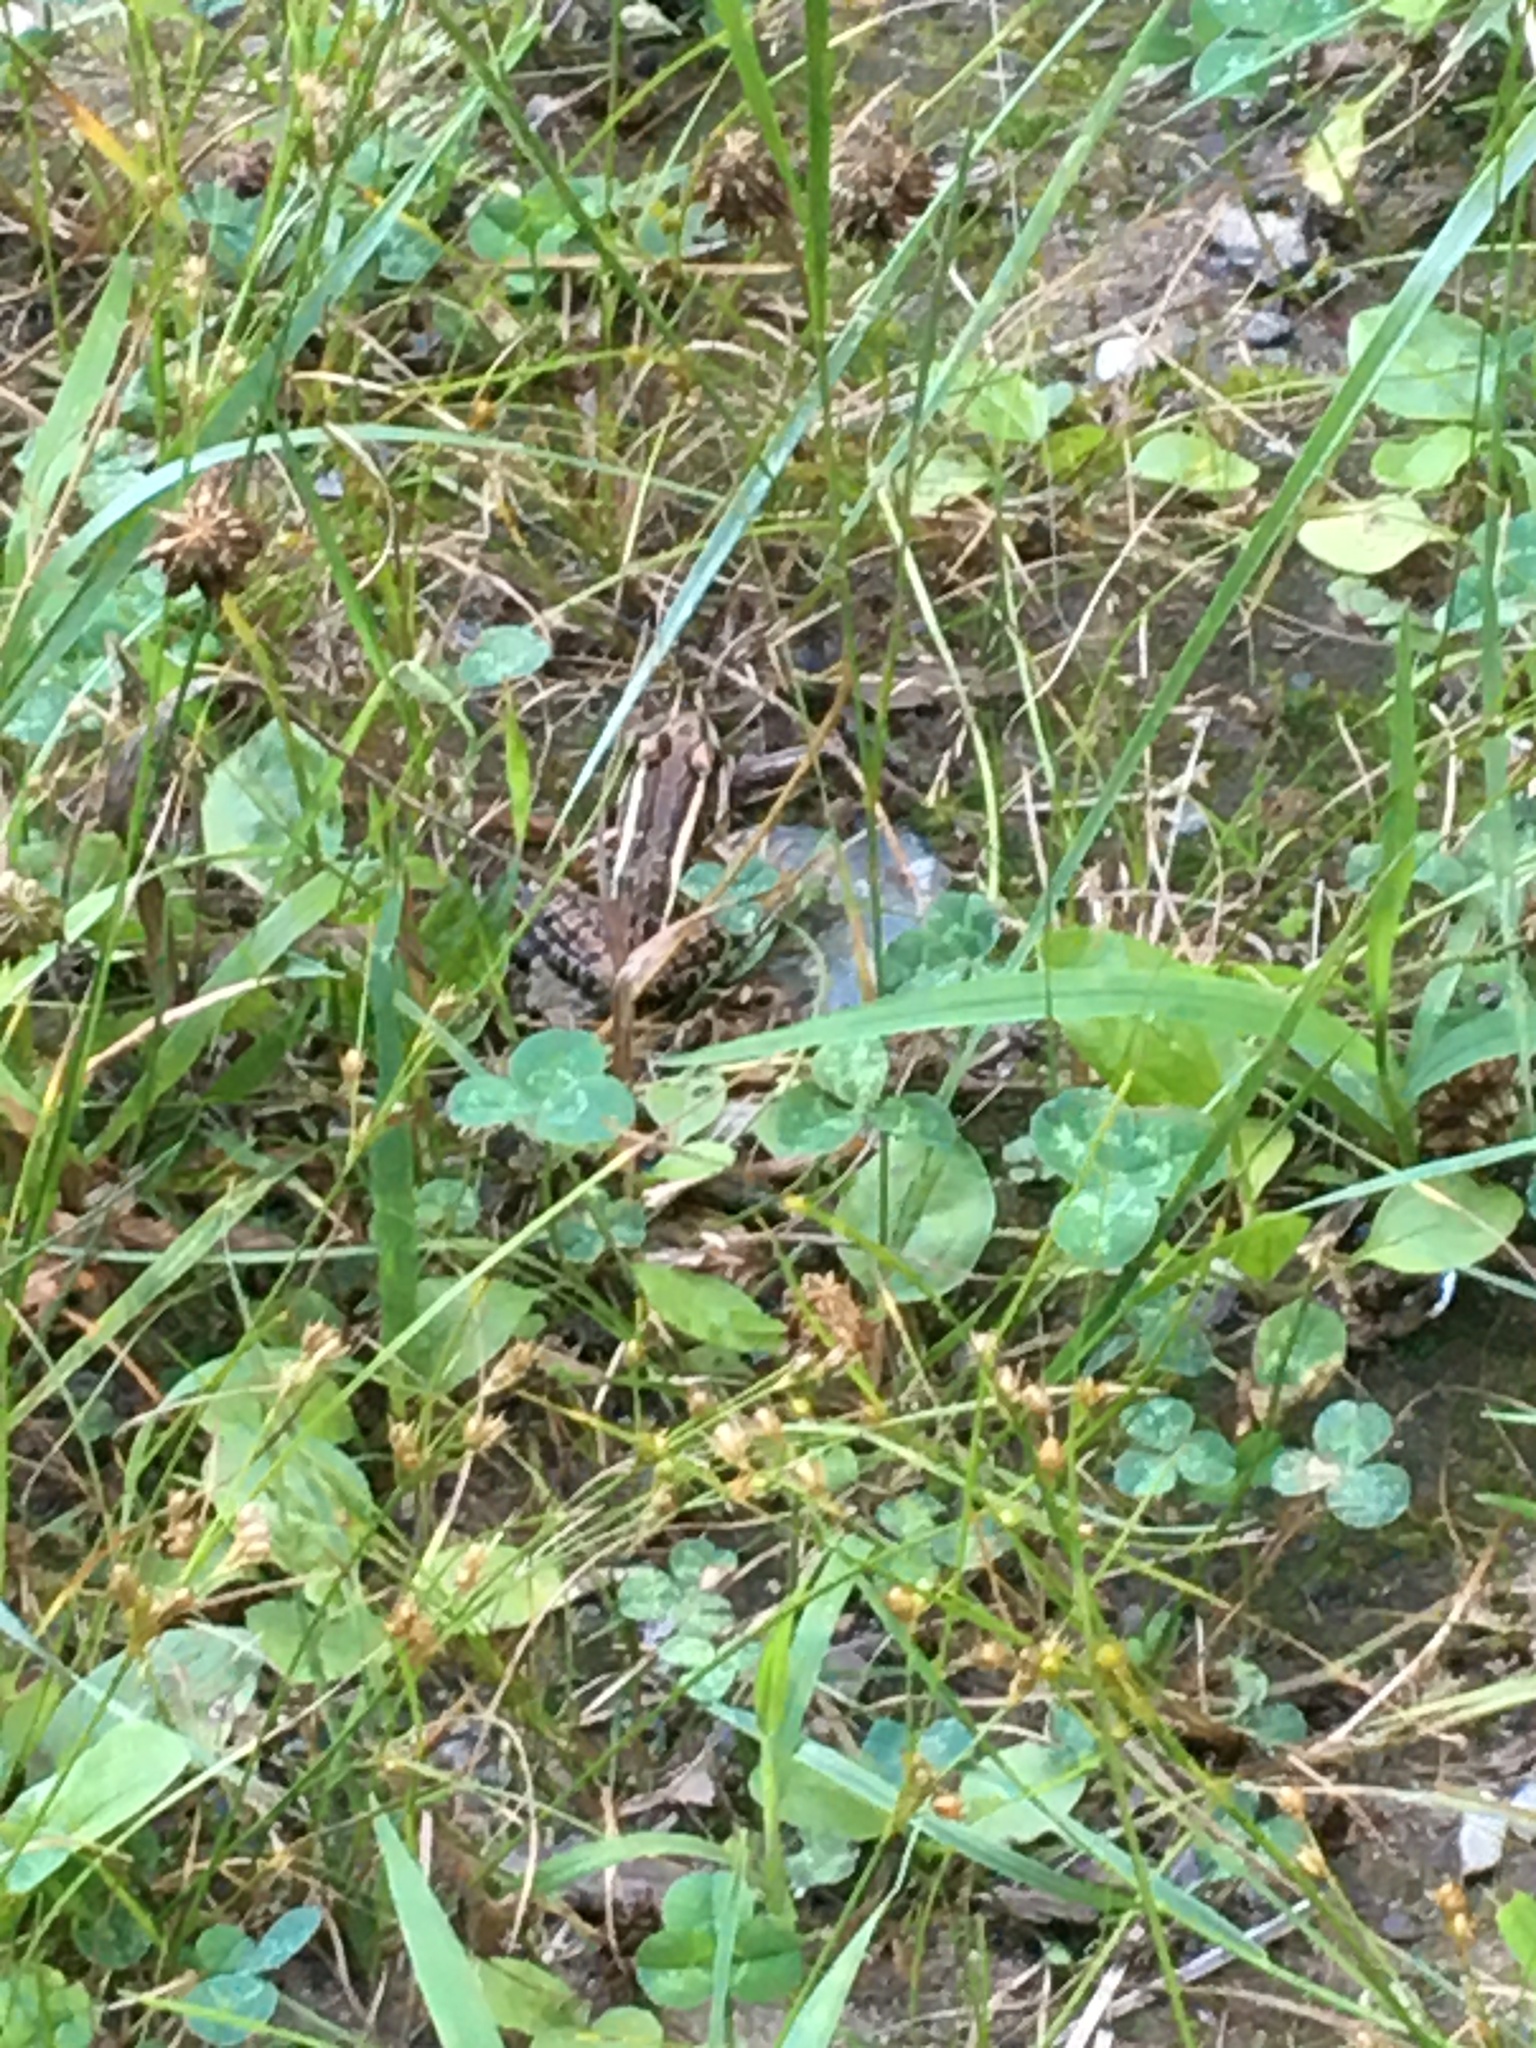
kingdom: Animalia
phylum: Chordata
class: Amphibia
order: Anura
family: Ranidae
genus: Lithobates
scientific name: Lithobates palustris
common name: Pickerel frog
